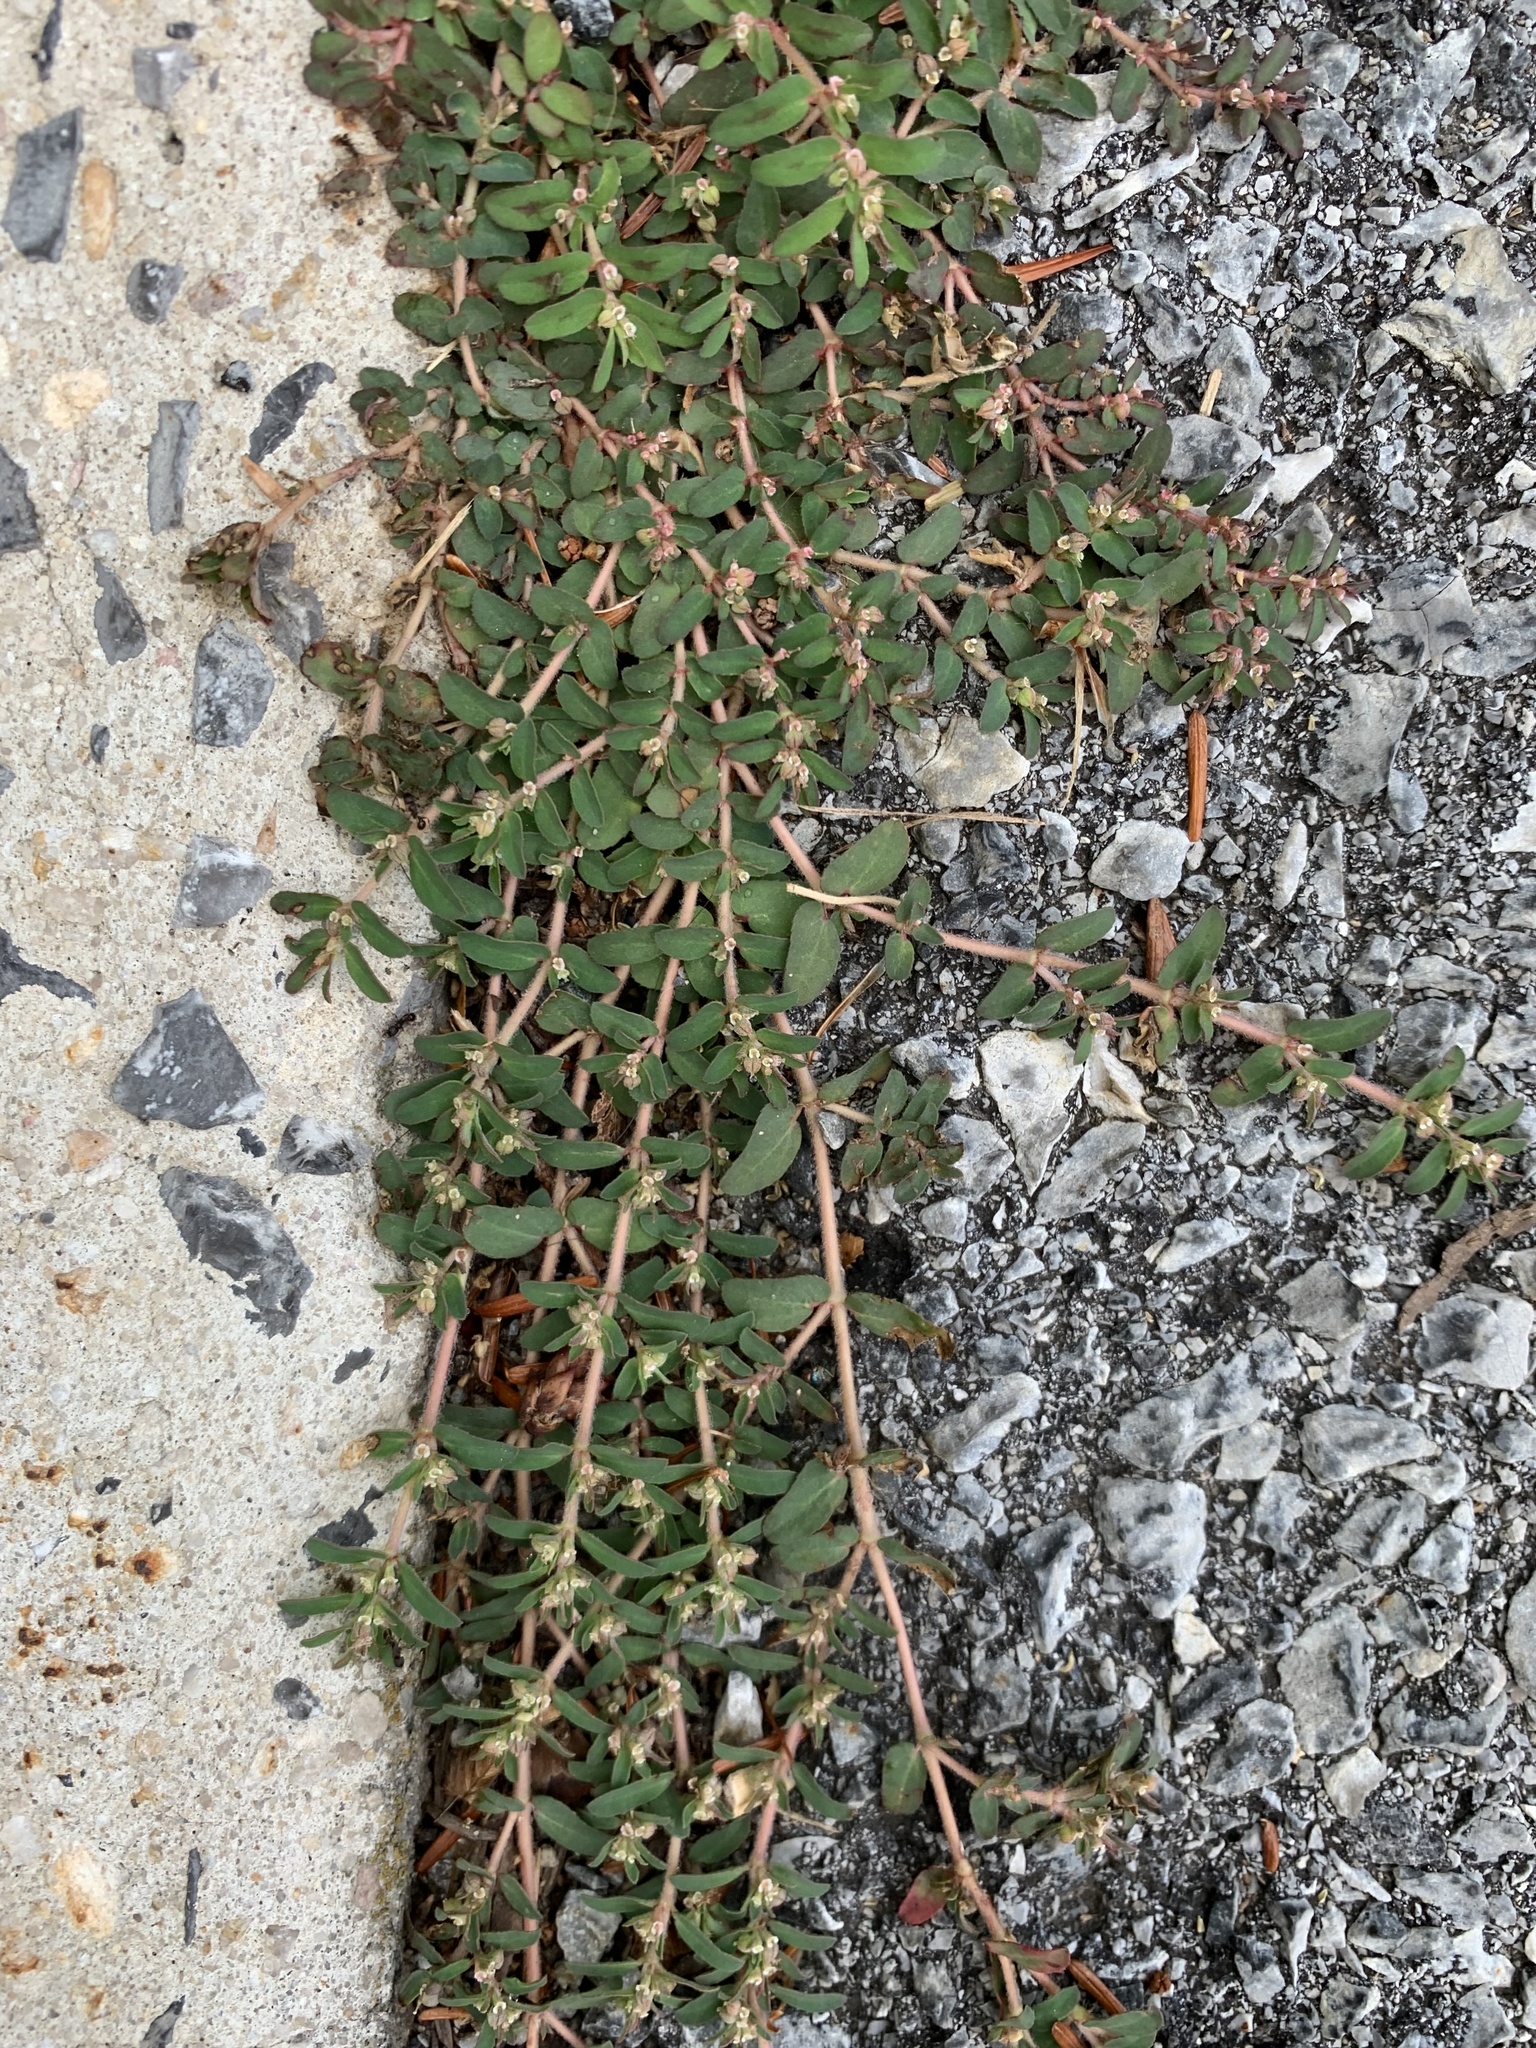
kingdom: Plantae
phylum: Tracheophyta
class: Magnoliopsida
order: Malpighiales
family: Euphorbiaceae
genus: Euphorbia
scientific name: Euphorbia maculata
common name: Spotted spurge
